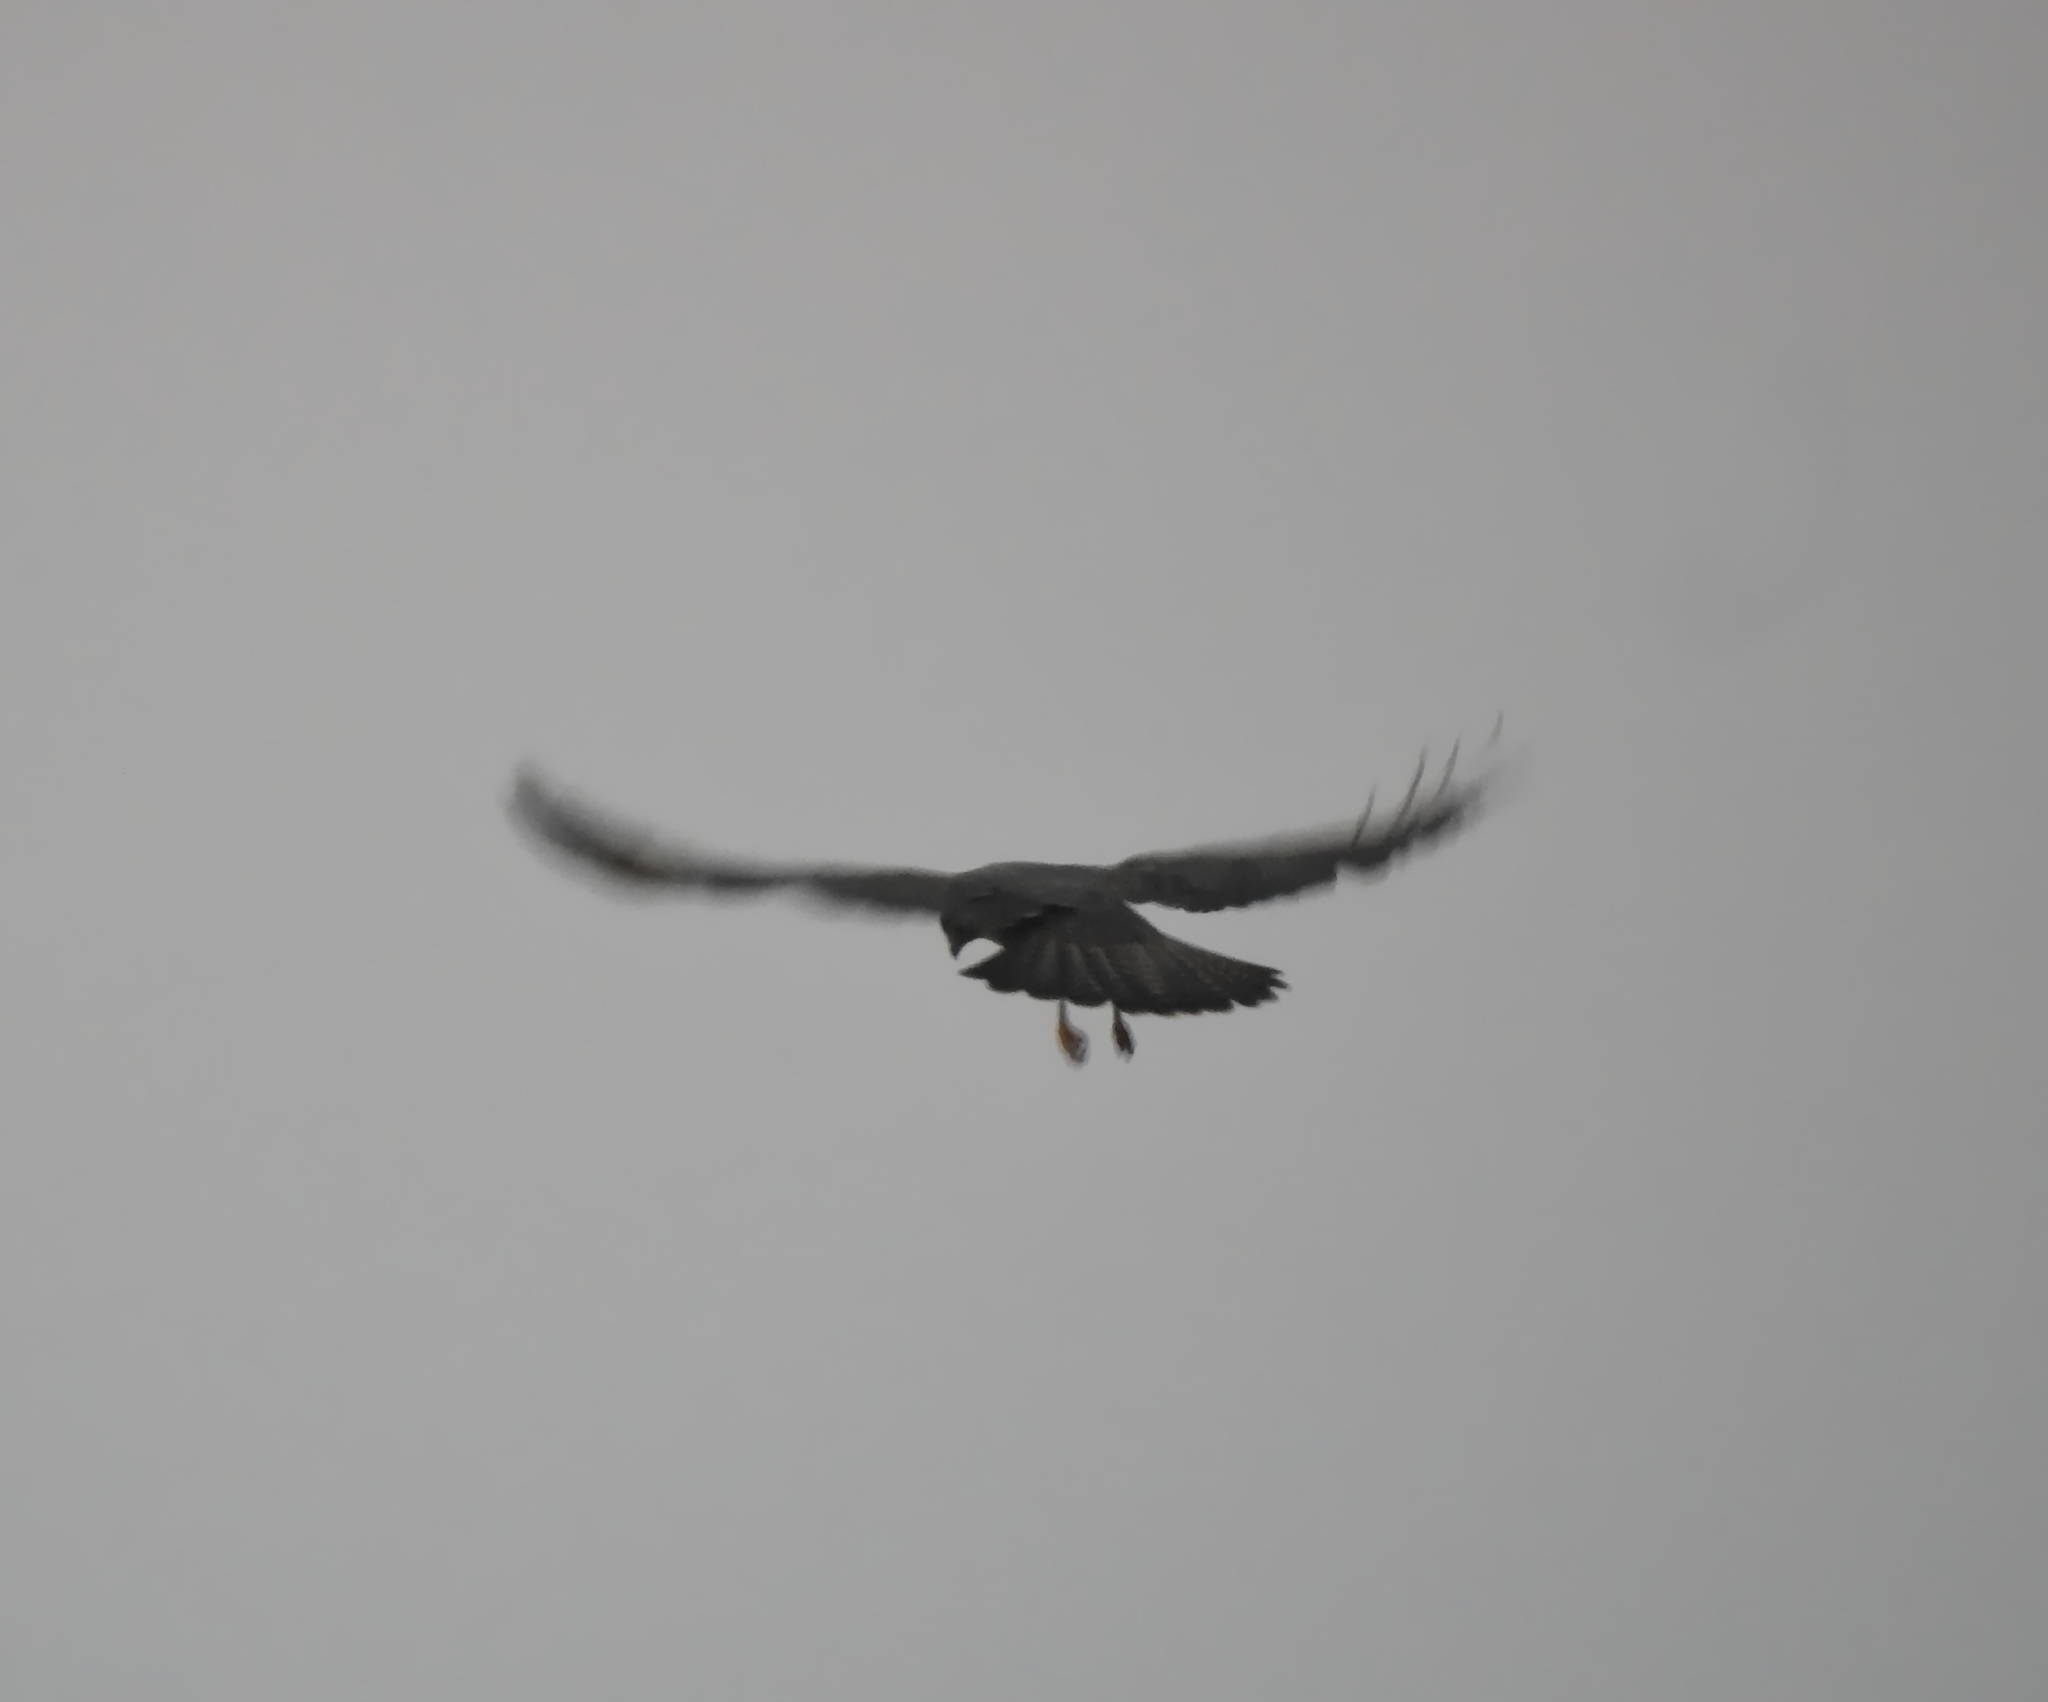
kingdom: Animalia
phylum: Chordata
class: Aves
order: Accipitriformes
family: Accipitridae
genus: Buteo
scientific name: Buteo buteo
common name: Common buzzard
